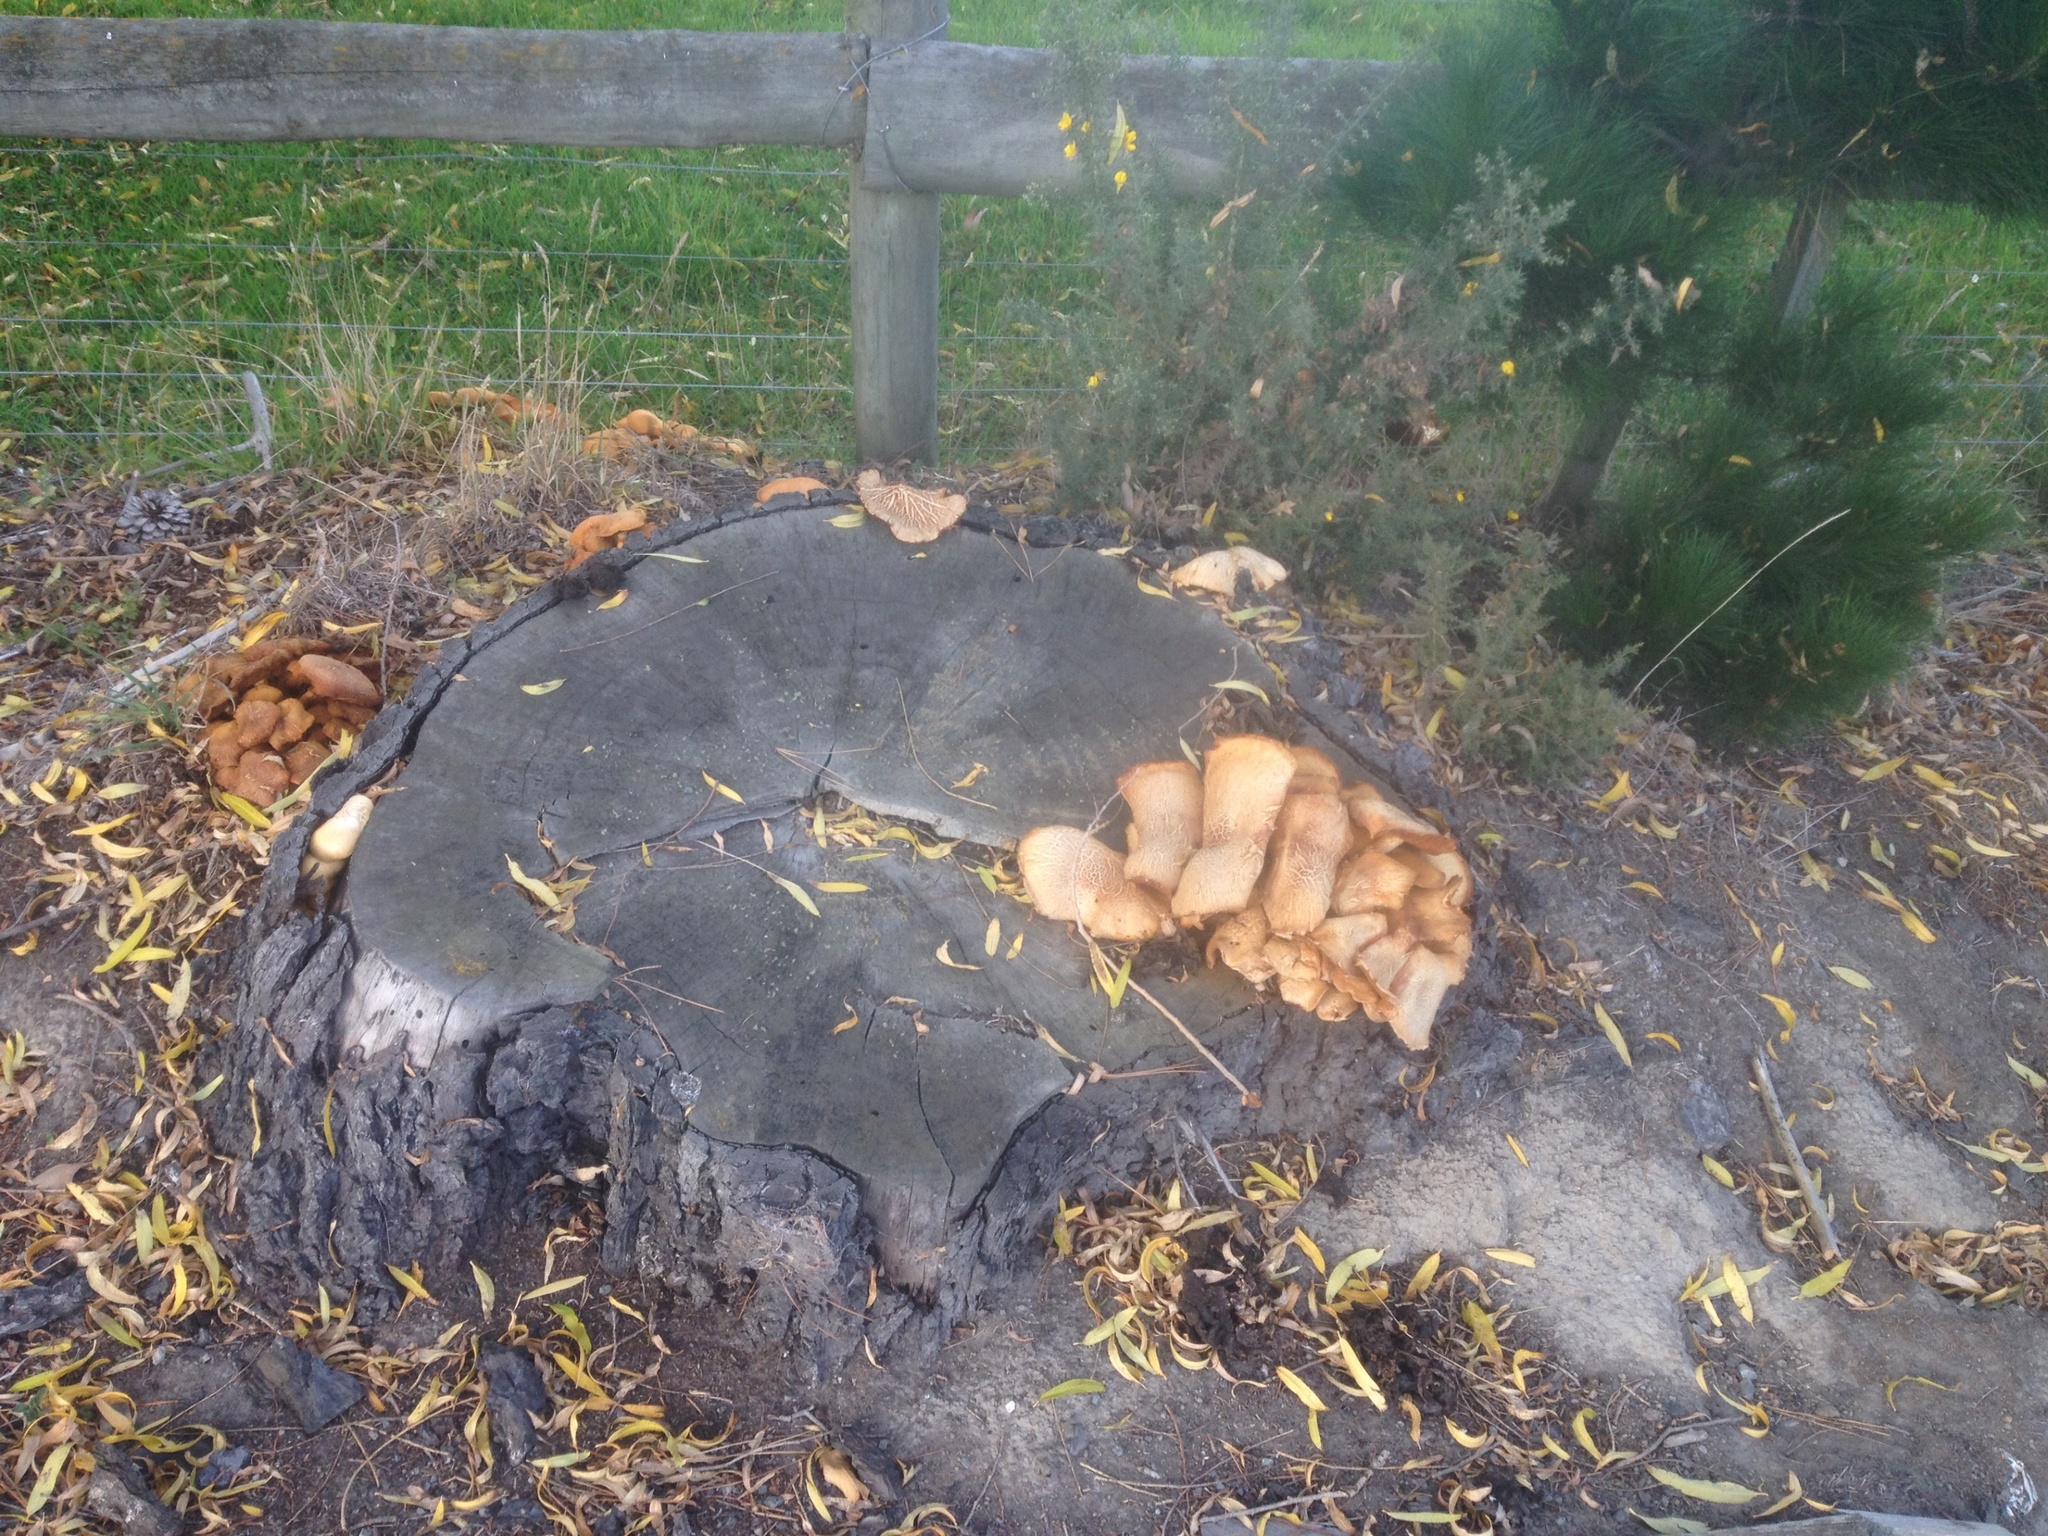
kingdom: Fungi
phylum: Basidiomycota
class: Agaricomycetes
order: Agaricales
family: Hymenogastraceae
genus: Gymnopilus
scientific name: Gymnopilus junonius
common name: Spectacular rustgill
